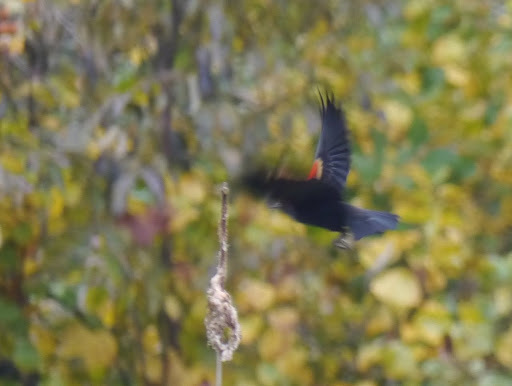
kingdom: Animalia
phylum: Chordata
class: Aves
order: Passeriformes
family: Icteridae
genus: Agelaius
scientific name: Agelaius phoeniceus
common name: Red-winged blackbird
